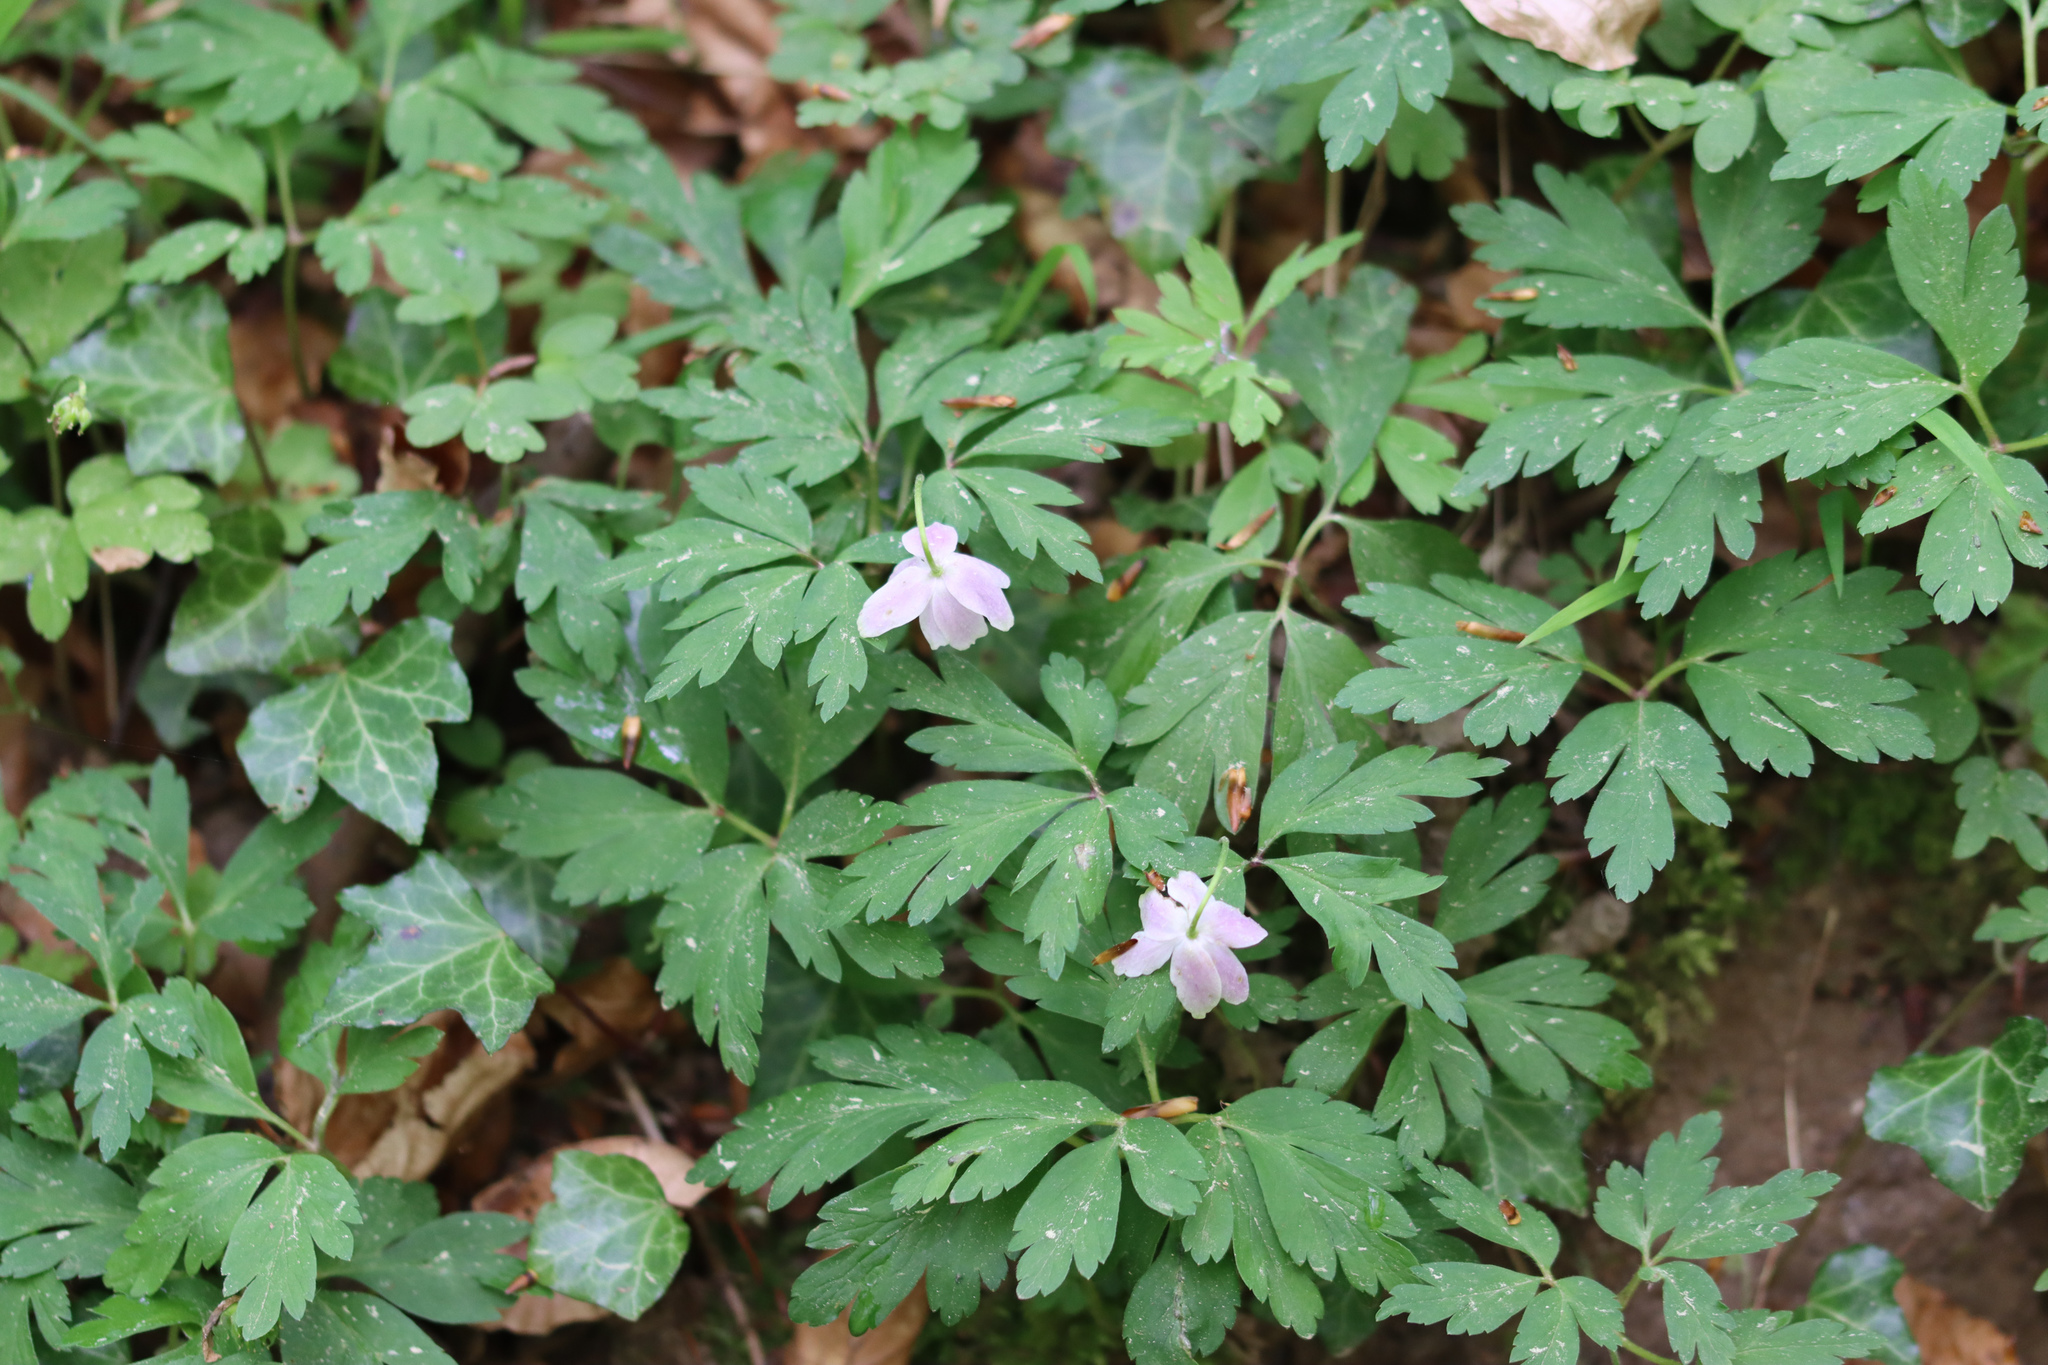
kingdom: Plantae
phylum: Tracheophyta
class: Magnoliopsida
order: Ranunculales
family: Ranunculaceae
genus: Anemone
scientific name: Anemone nemorosa
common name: Wood anemone
